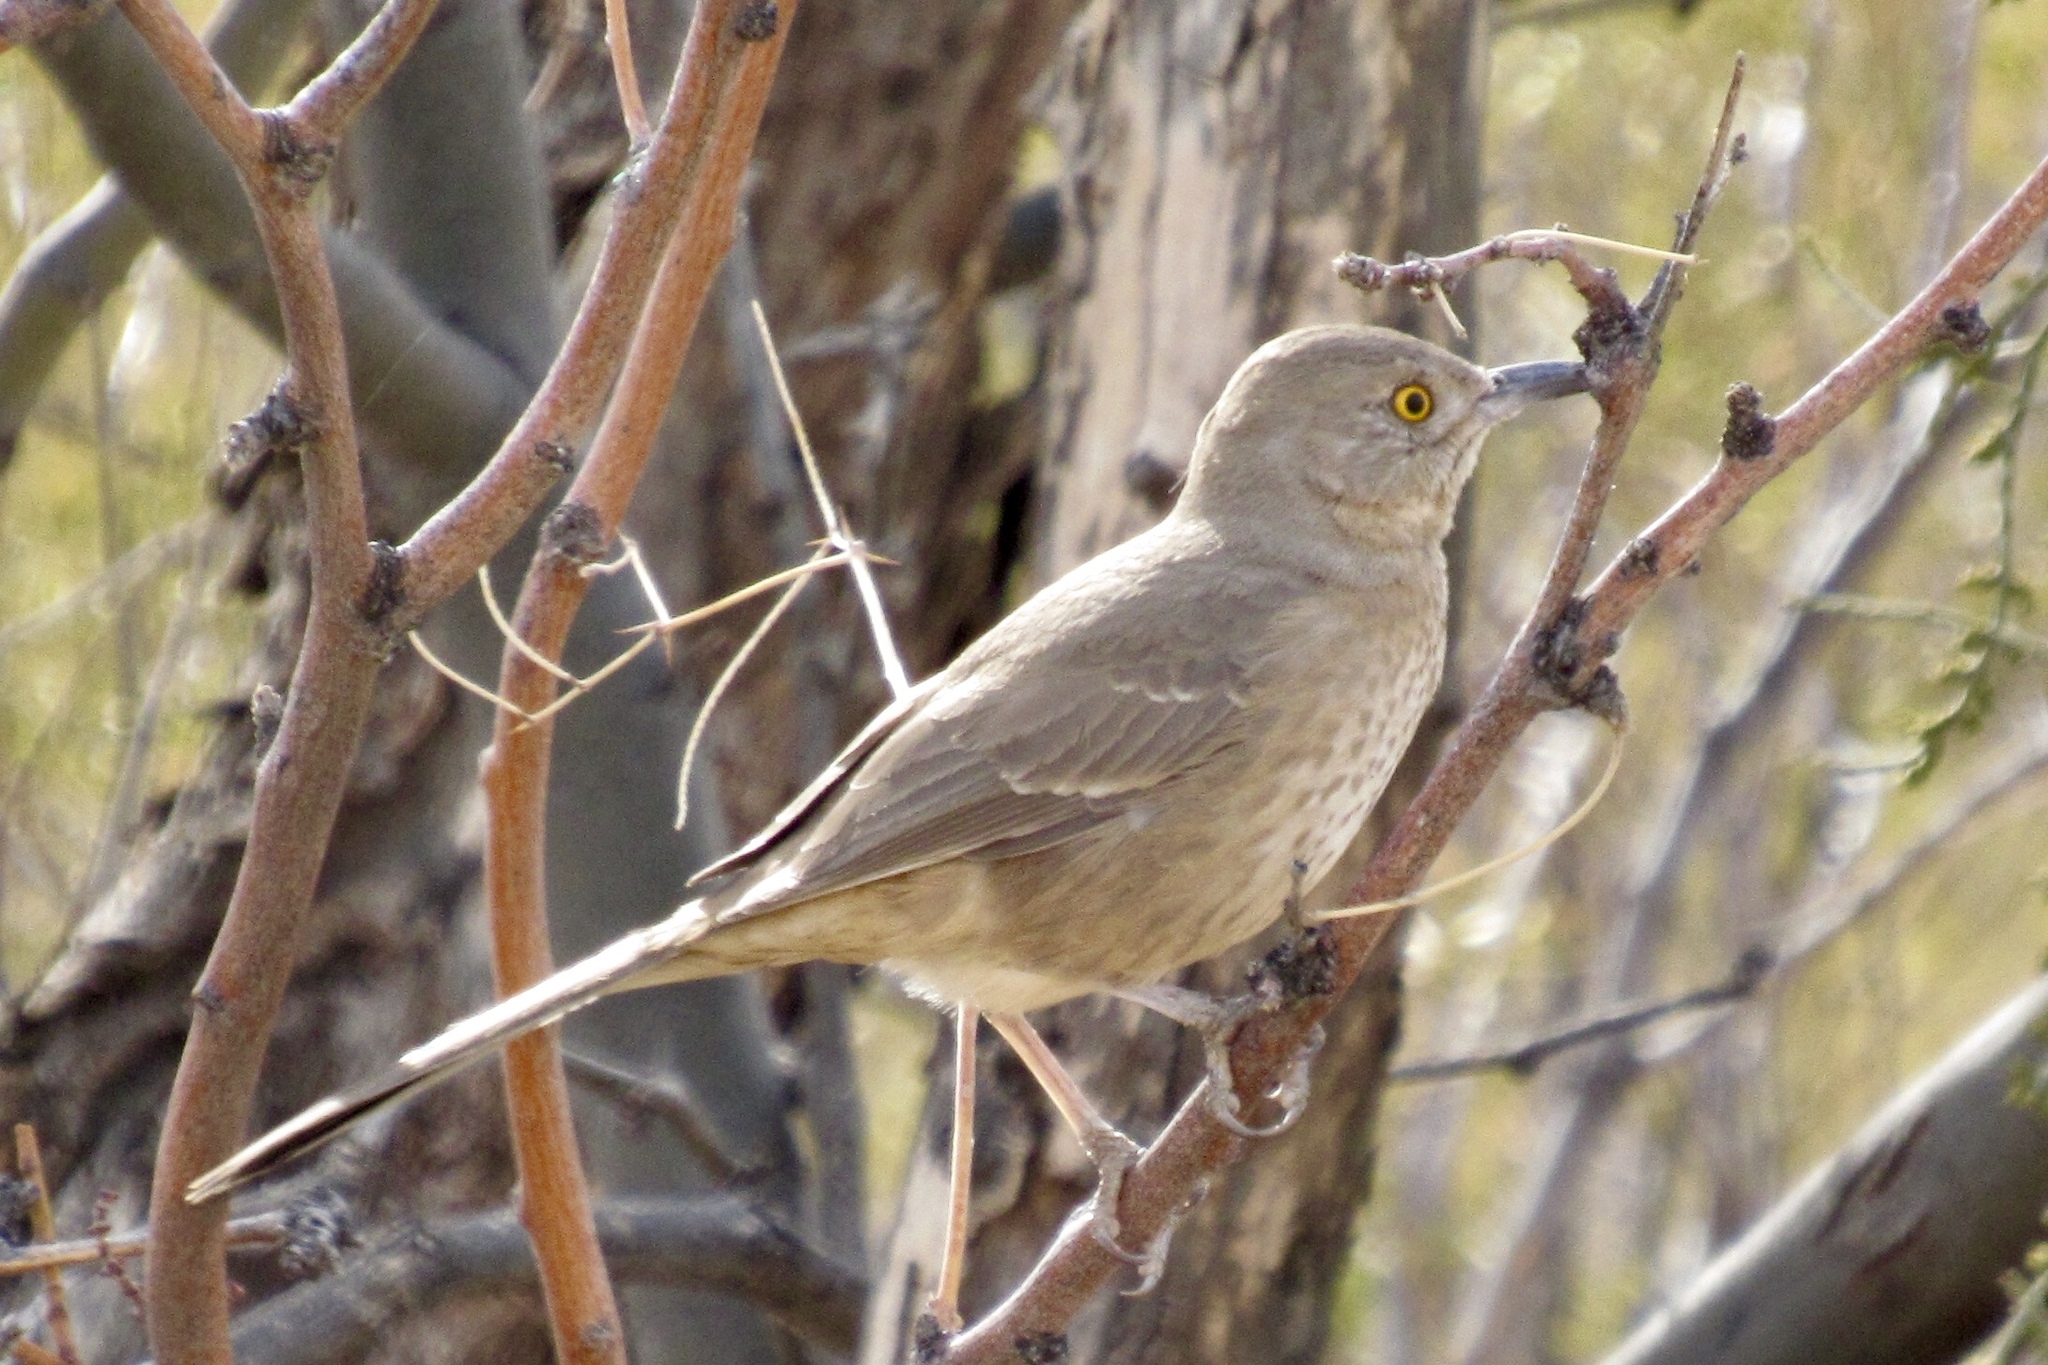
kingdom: Animalia
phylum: Chordata
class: Aves
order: Passeriformes
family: Mimidae
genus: Toxostoma
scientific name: Toxostoma curvirostre
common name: Curve-billed thrasher
